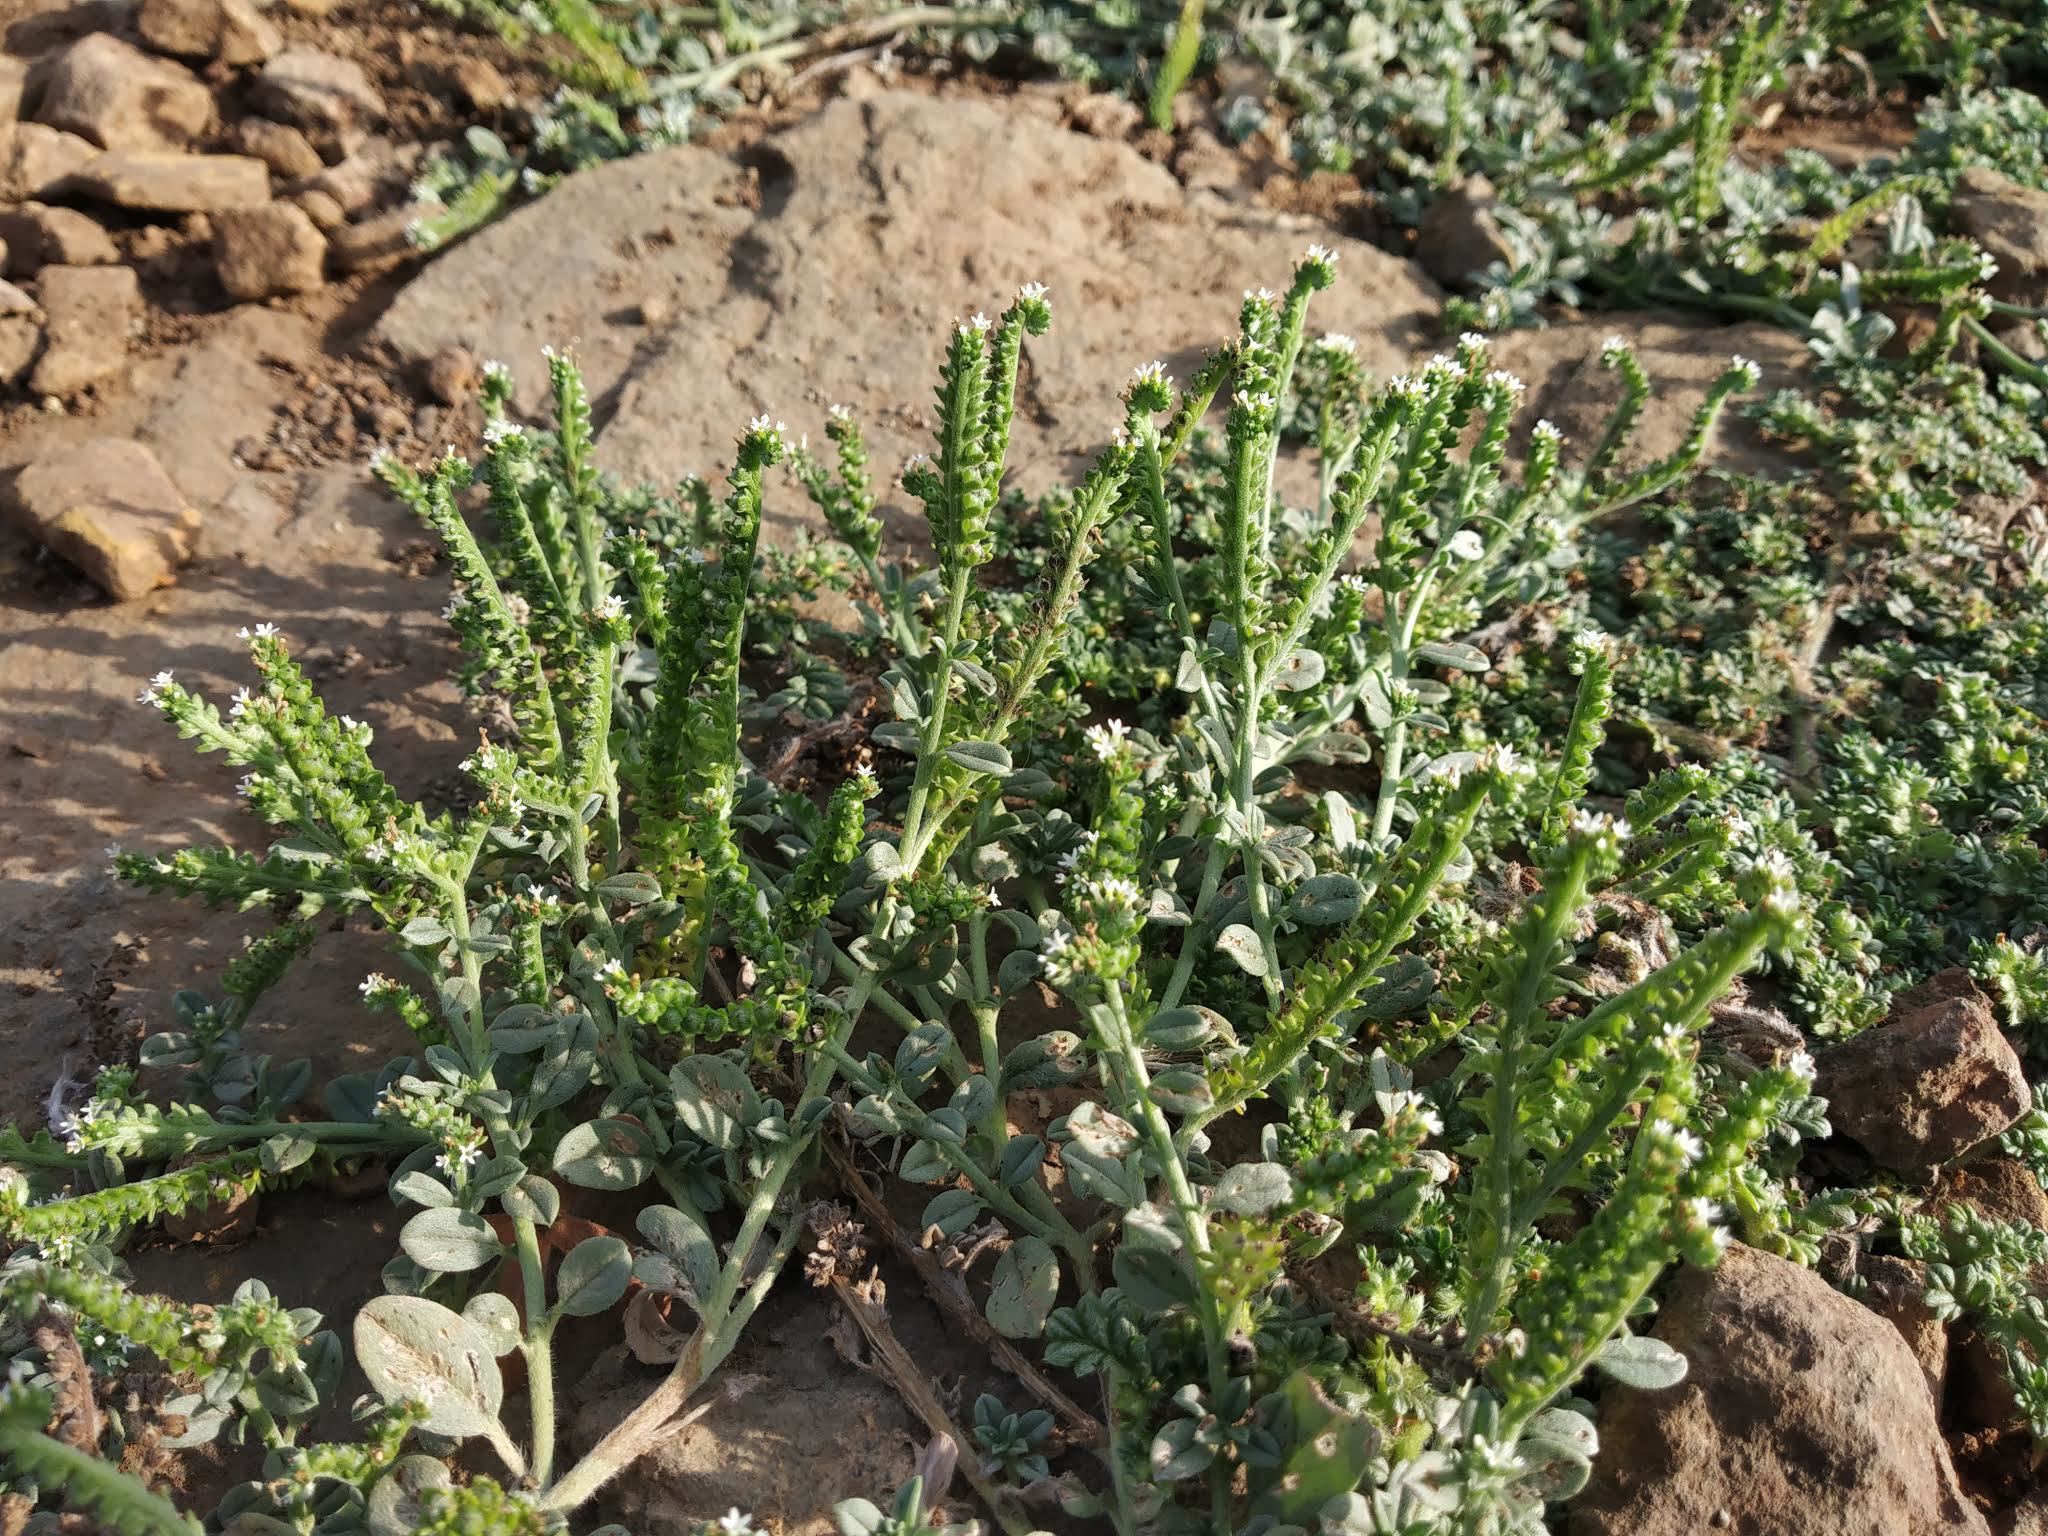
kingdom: Plantae
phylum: Tracheophyta
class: Magnoliopsida
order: Boraginales
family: Heliotropiaceae
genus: Euploca
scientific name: Euploca ovalifolia
